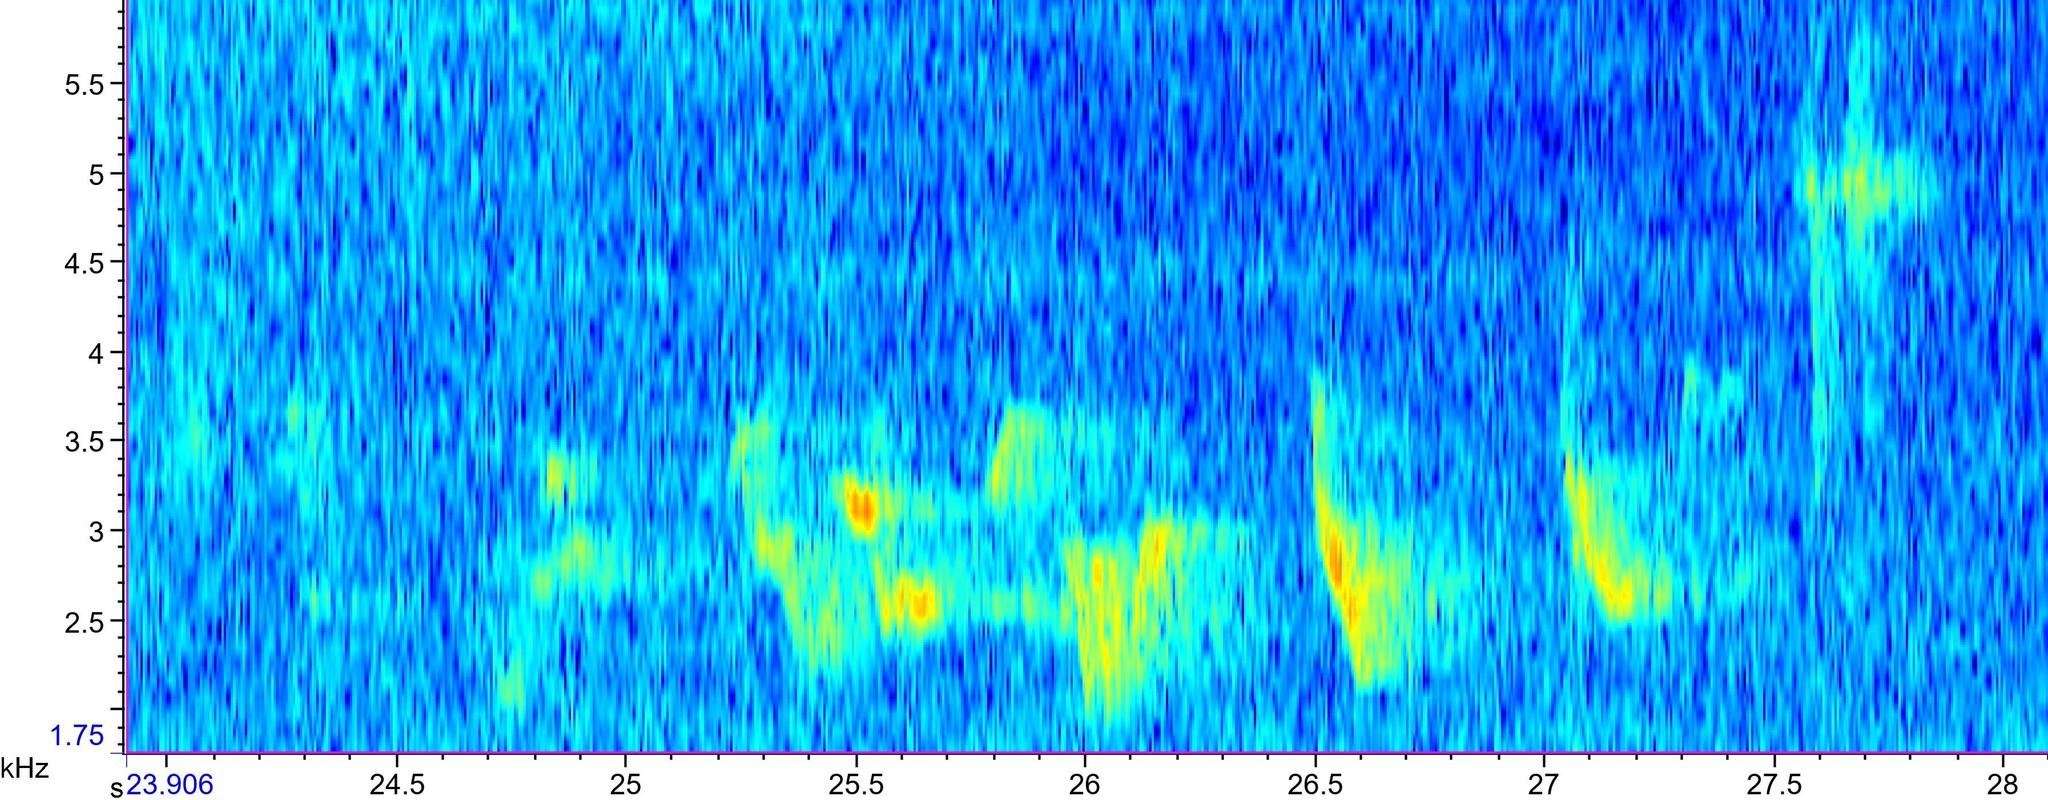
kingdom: Animalia
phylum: Chordata
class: Aves
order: Passeriformes
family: Turdidae
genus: Turdus
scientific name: Turdus migratorius
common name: American robin
